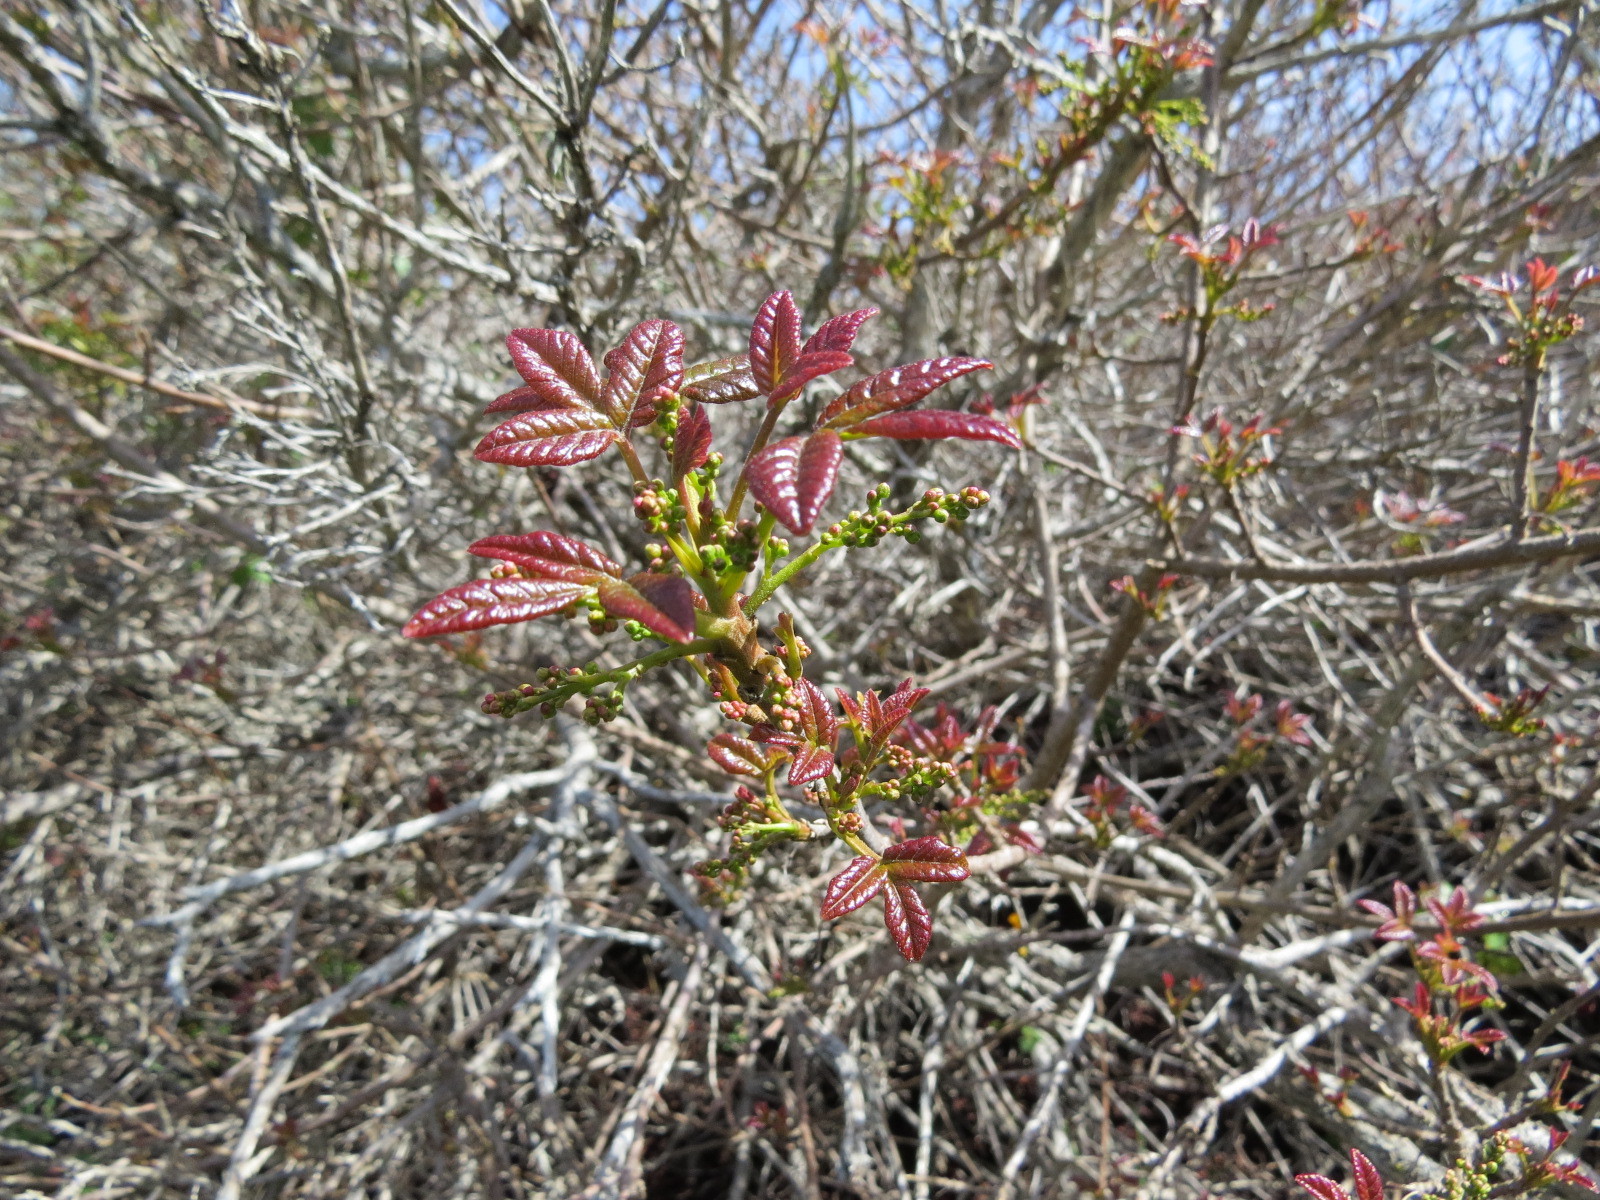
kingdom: Plantae
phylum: Tracheophyta
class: Magnoliopsida
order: Sapindales
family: Anacardiaceae
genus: Toxicodendron
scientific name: Toxicodendron diversilobum
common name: Pacific poison-oak
